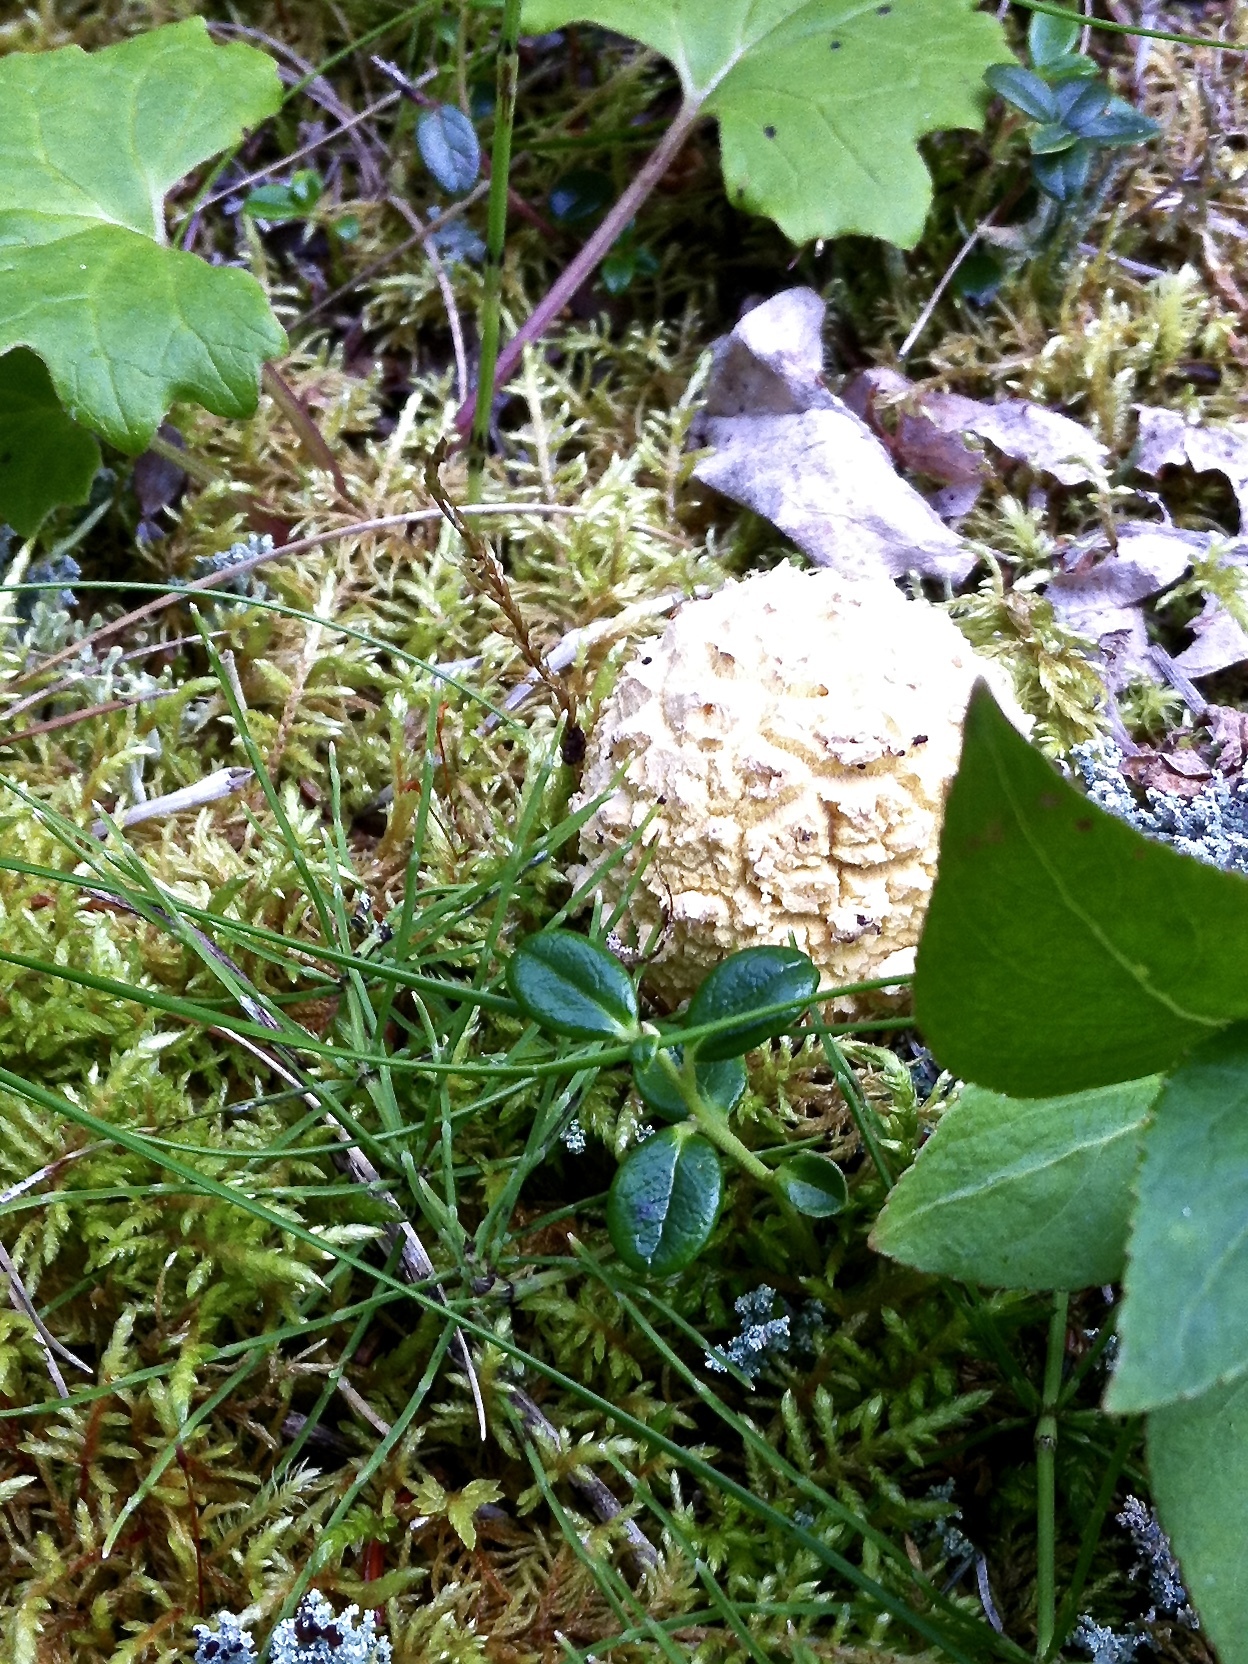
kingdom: Fungi
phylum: Basidiomycota
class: Agaricomycetes
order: Agaricales
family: Amanitaceae
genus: Amanita
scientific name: Amanita pantherina
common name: Panthercap
